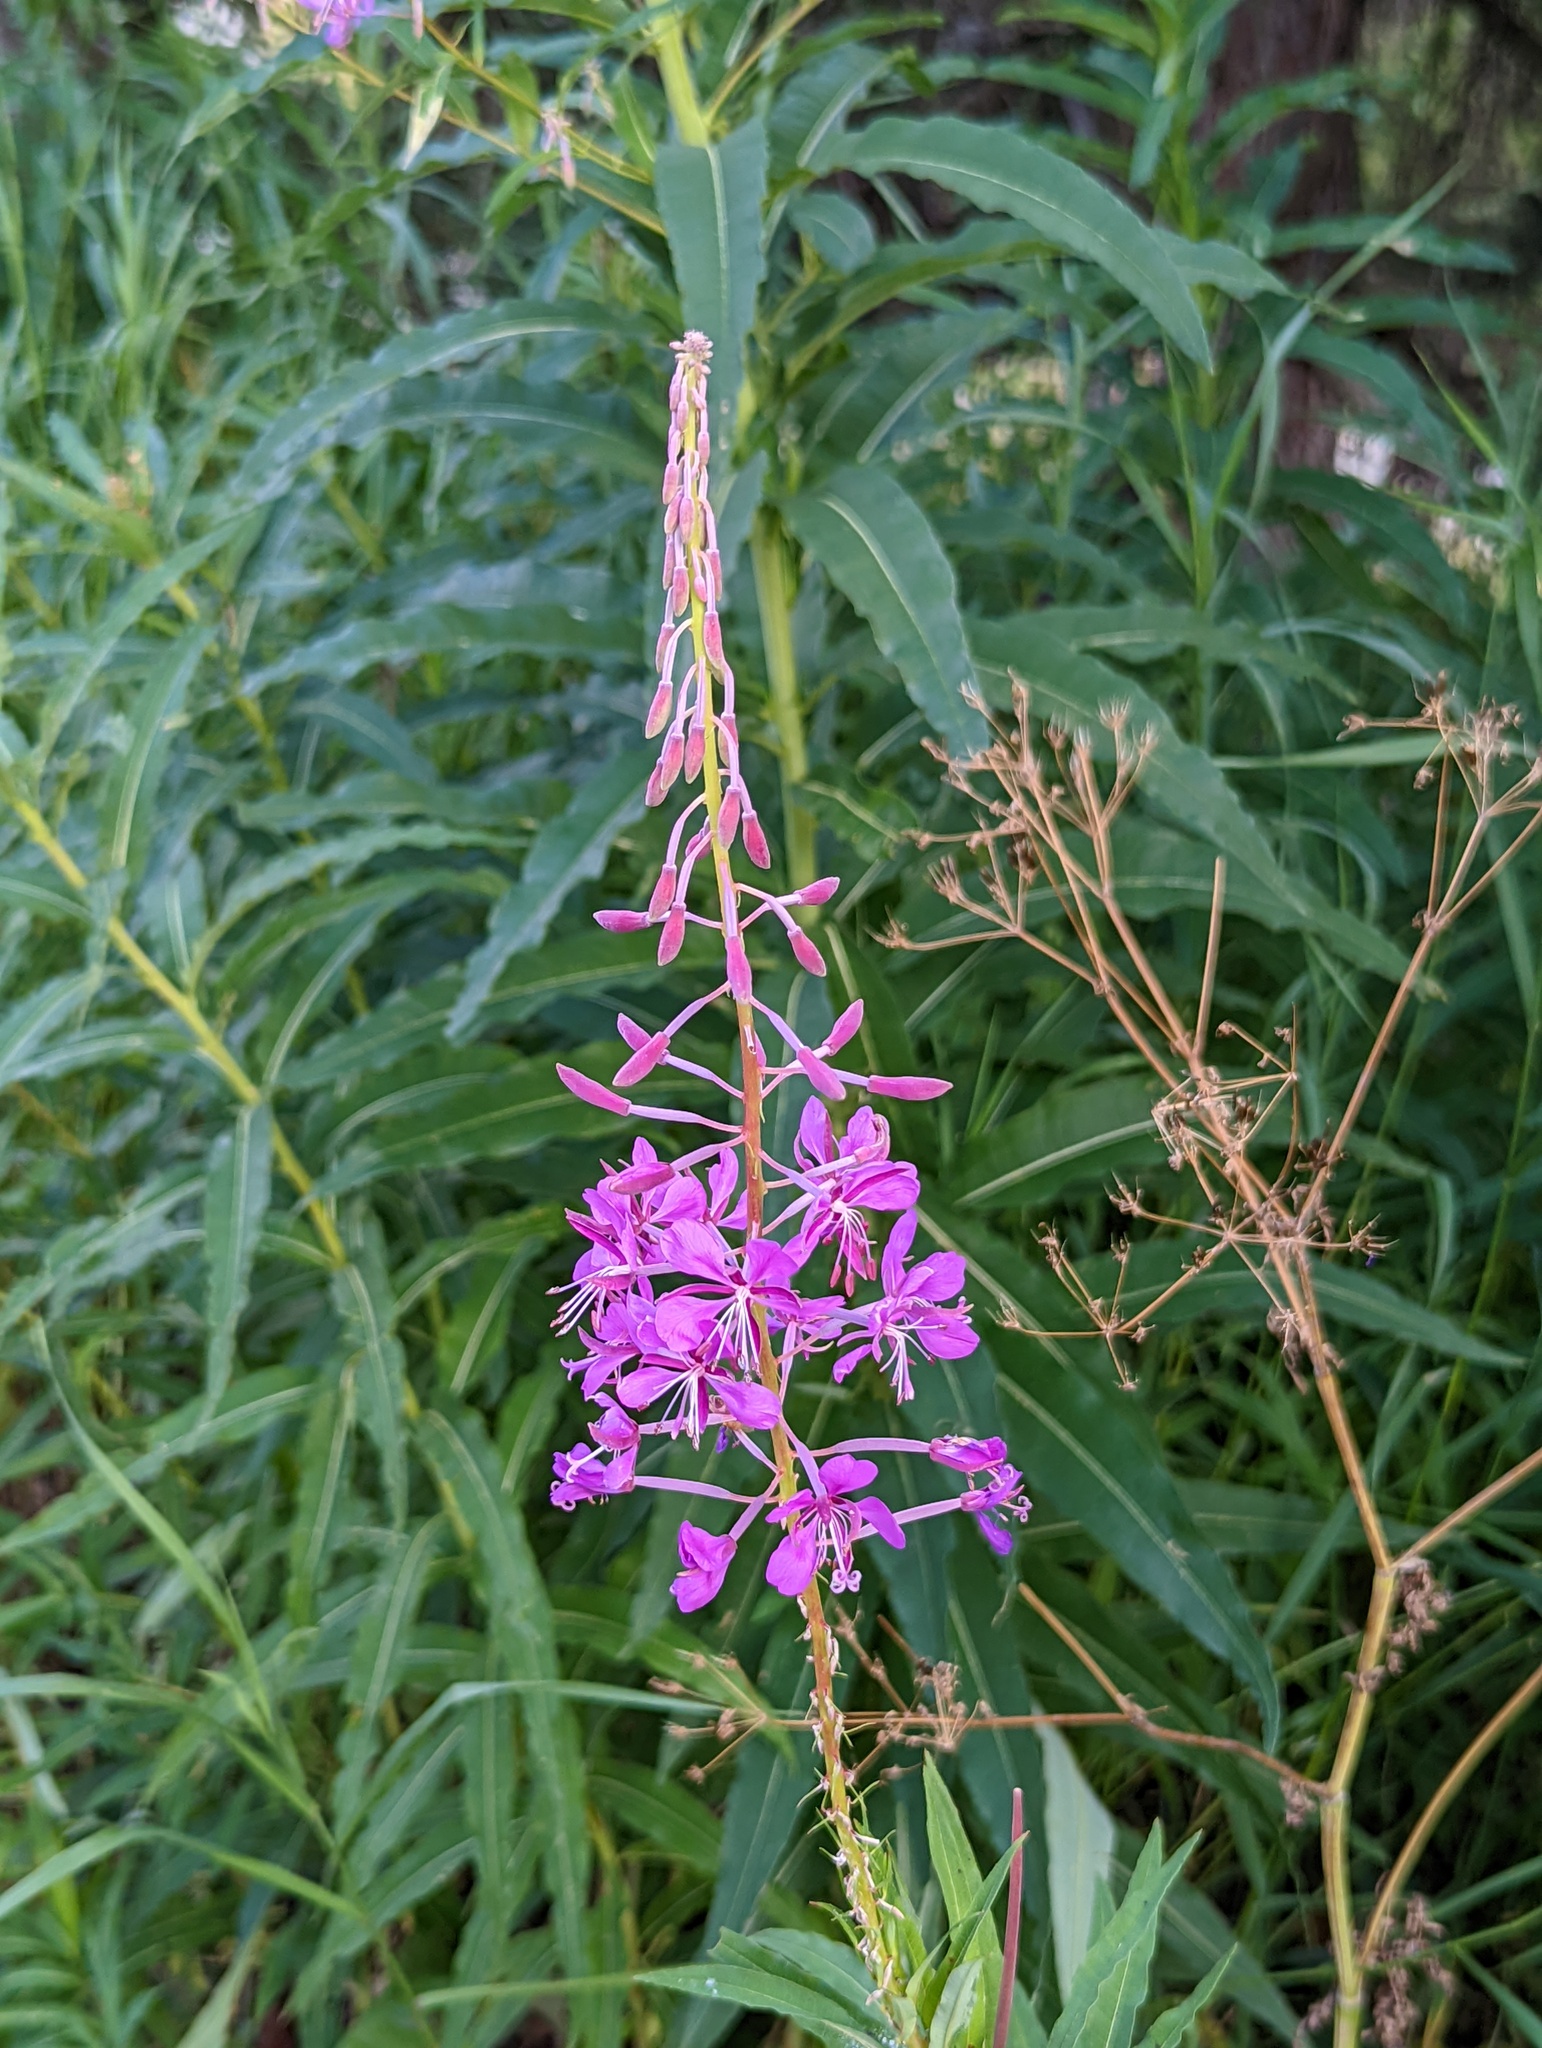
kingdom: Plantae
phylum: Tracheophyta
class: Magnoliopsida
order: Myrtales
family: Onagraceae
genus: Chamaenerion
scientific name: Chamaenerion angustifolium
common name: Fireweed
